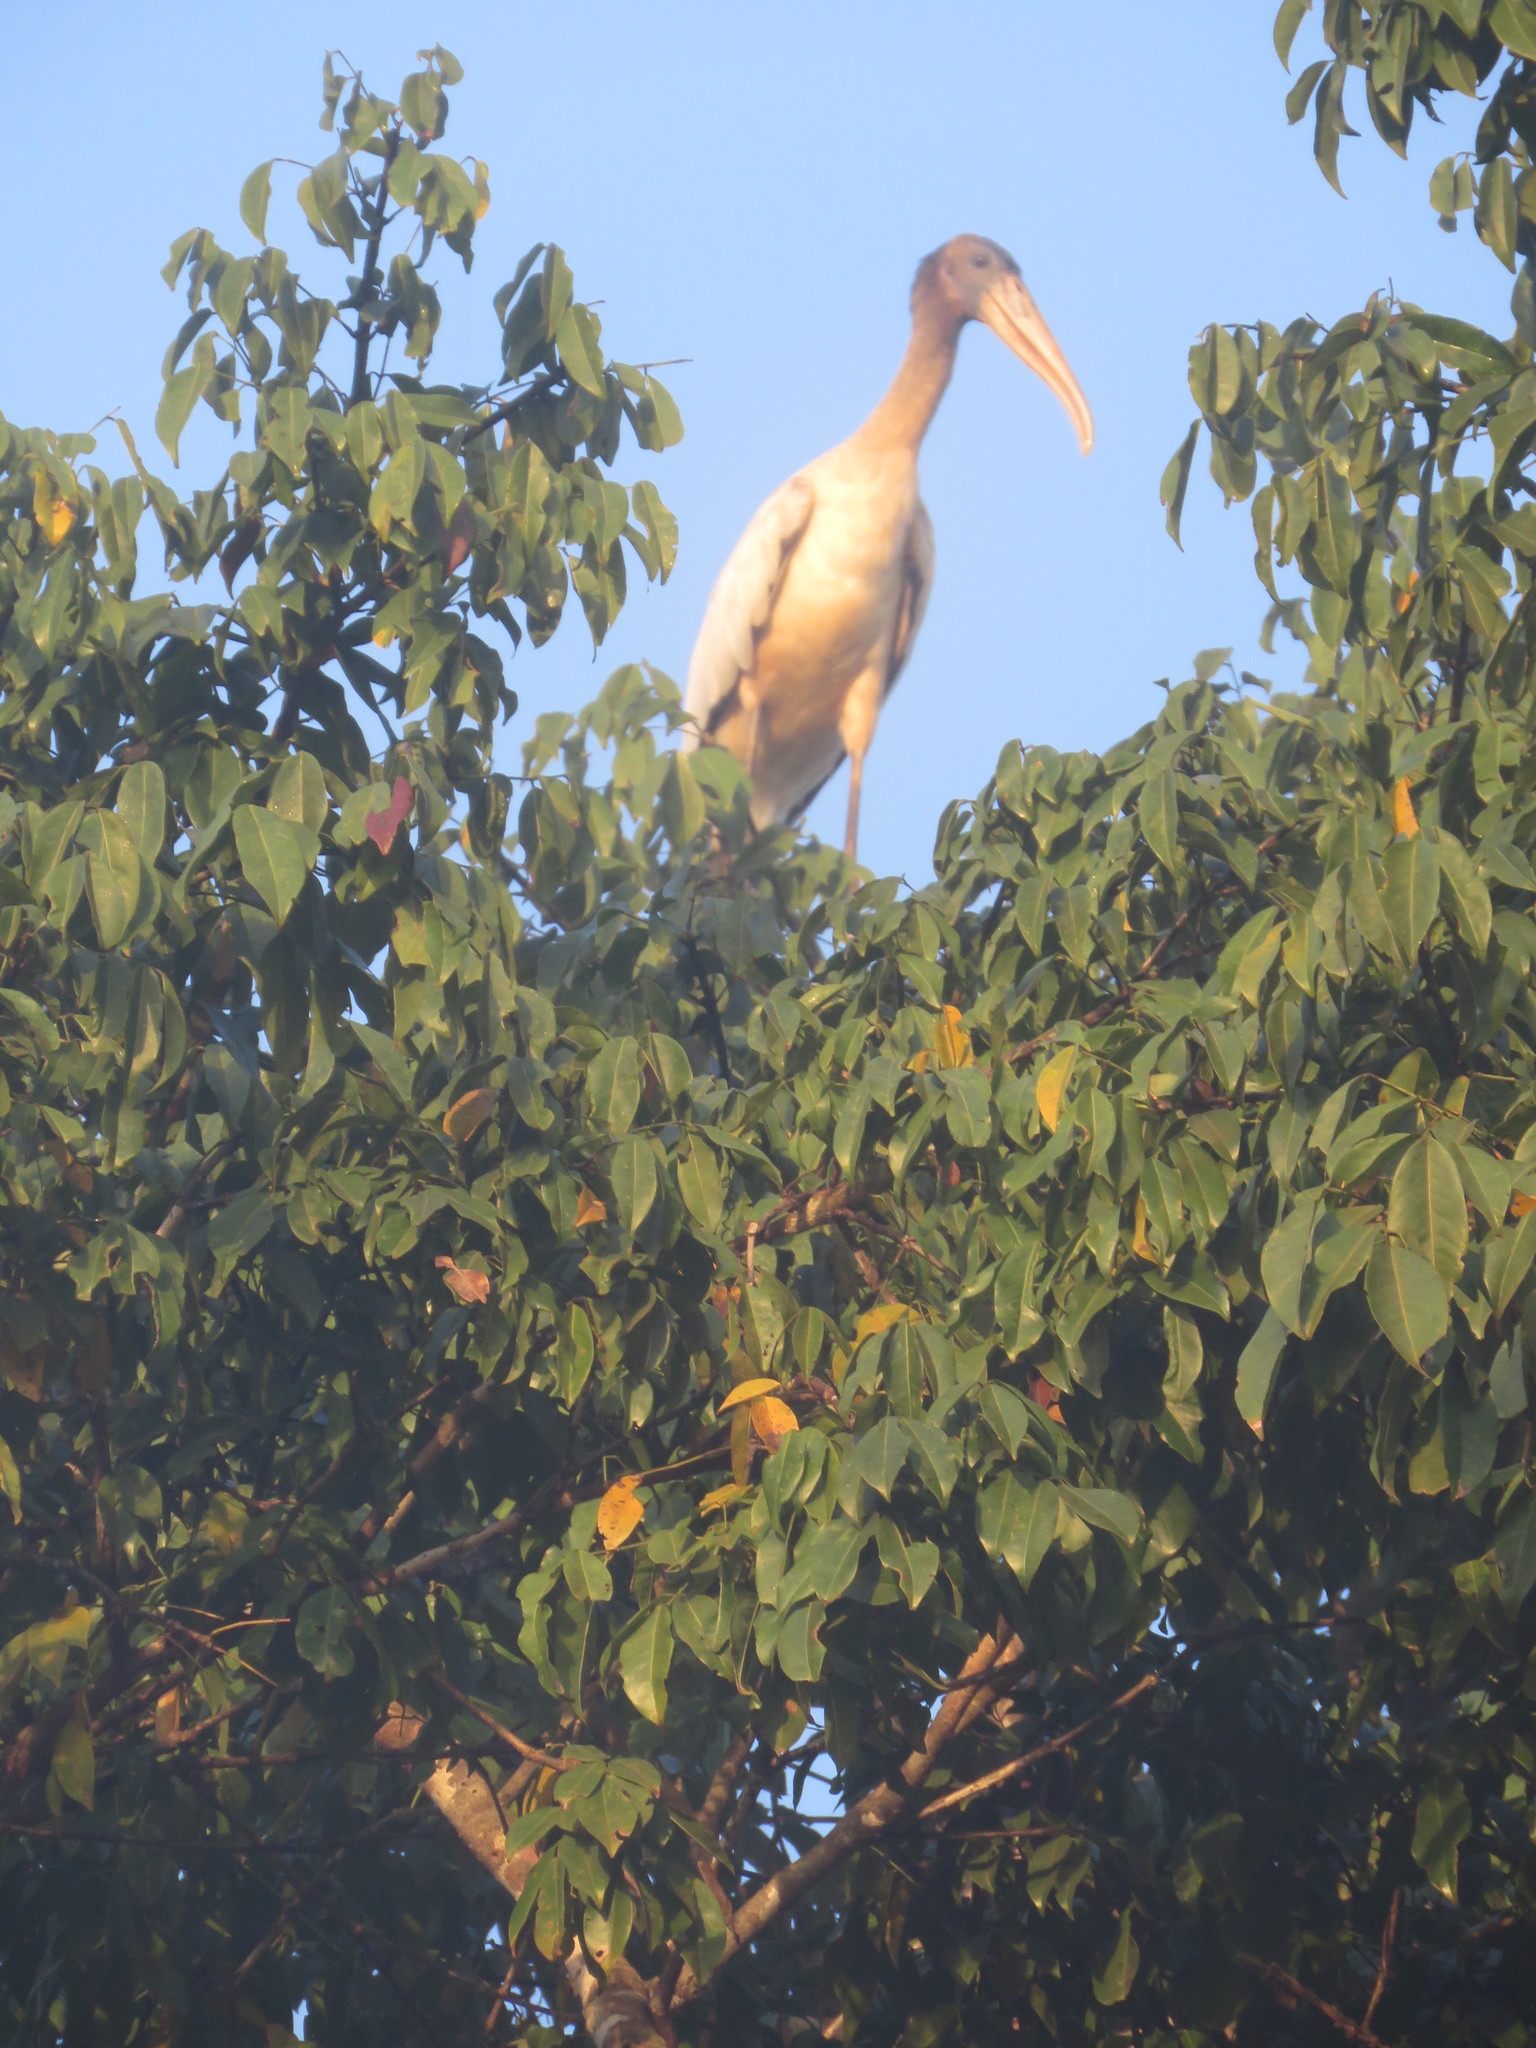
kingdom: Animalia
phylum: Chordata
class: Aves
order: Ciconiiformes
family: Ciconiidae
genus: Mycteria
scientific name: Mycteria americana
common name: Wood stork
